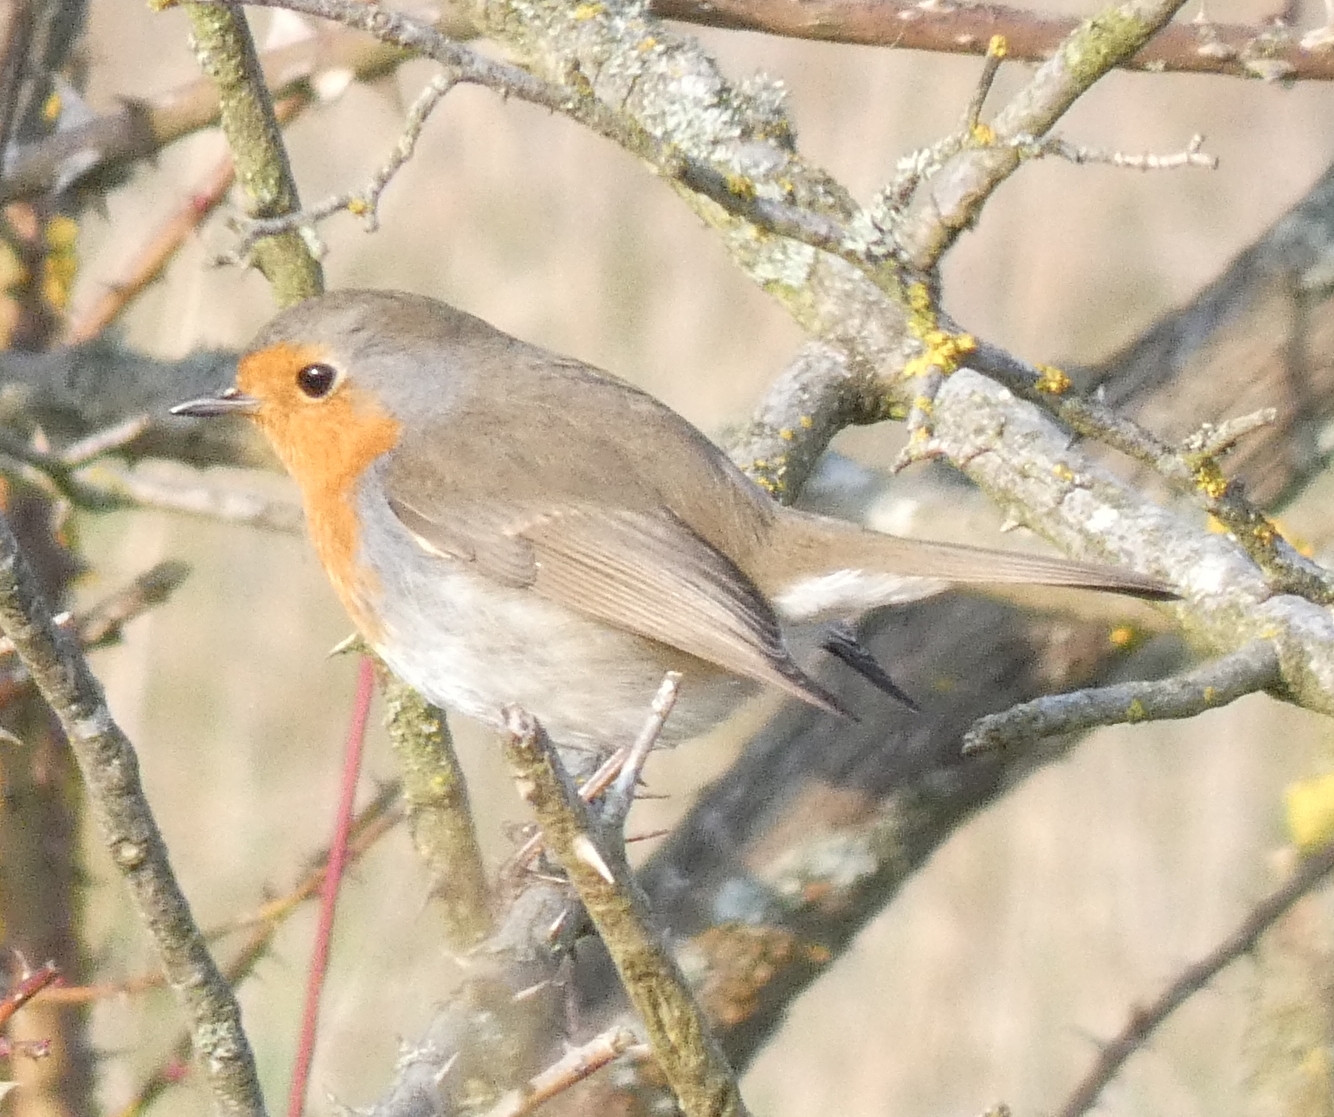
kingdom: Animalia
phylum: Chordata
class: Aves
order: Passeriformes
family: Muscicapidae
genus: Erithacus
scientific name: Erithacus rubecula
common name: European robin
